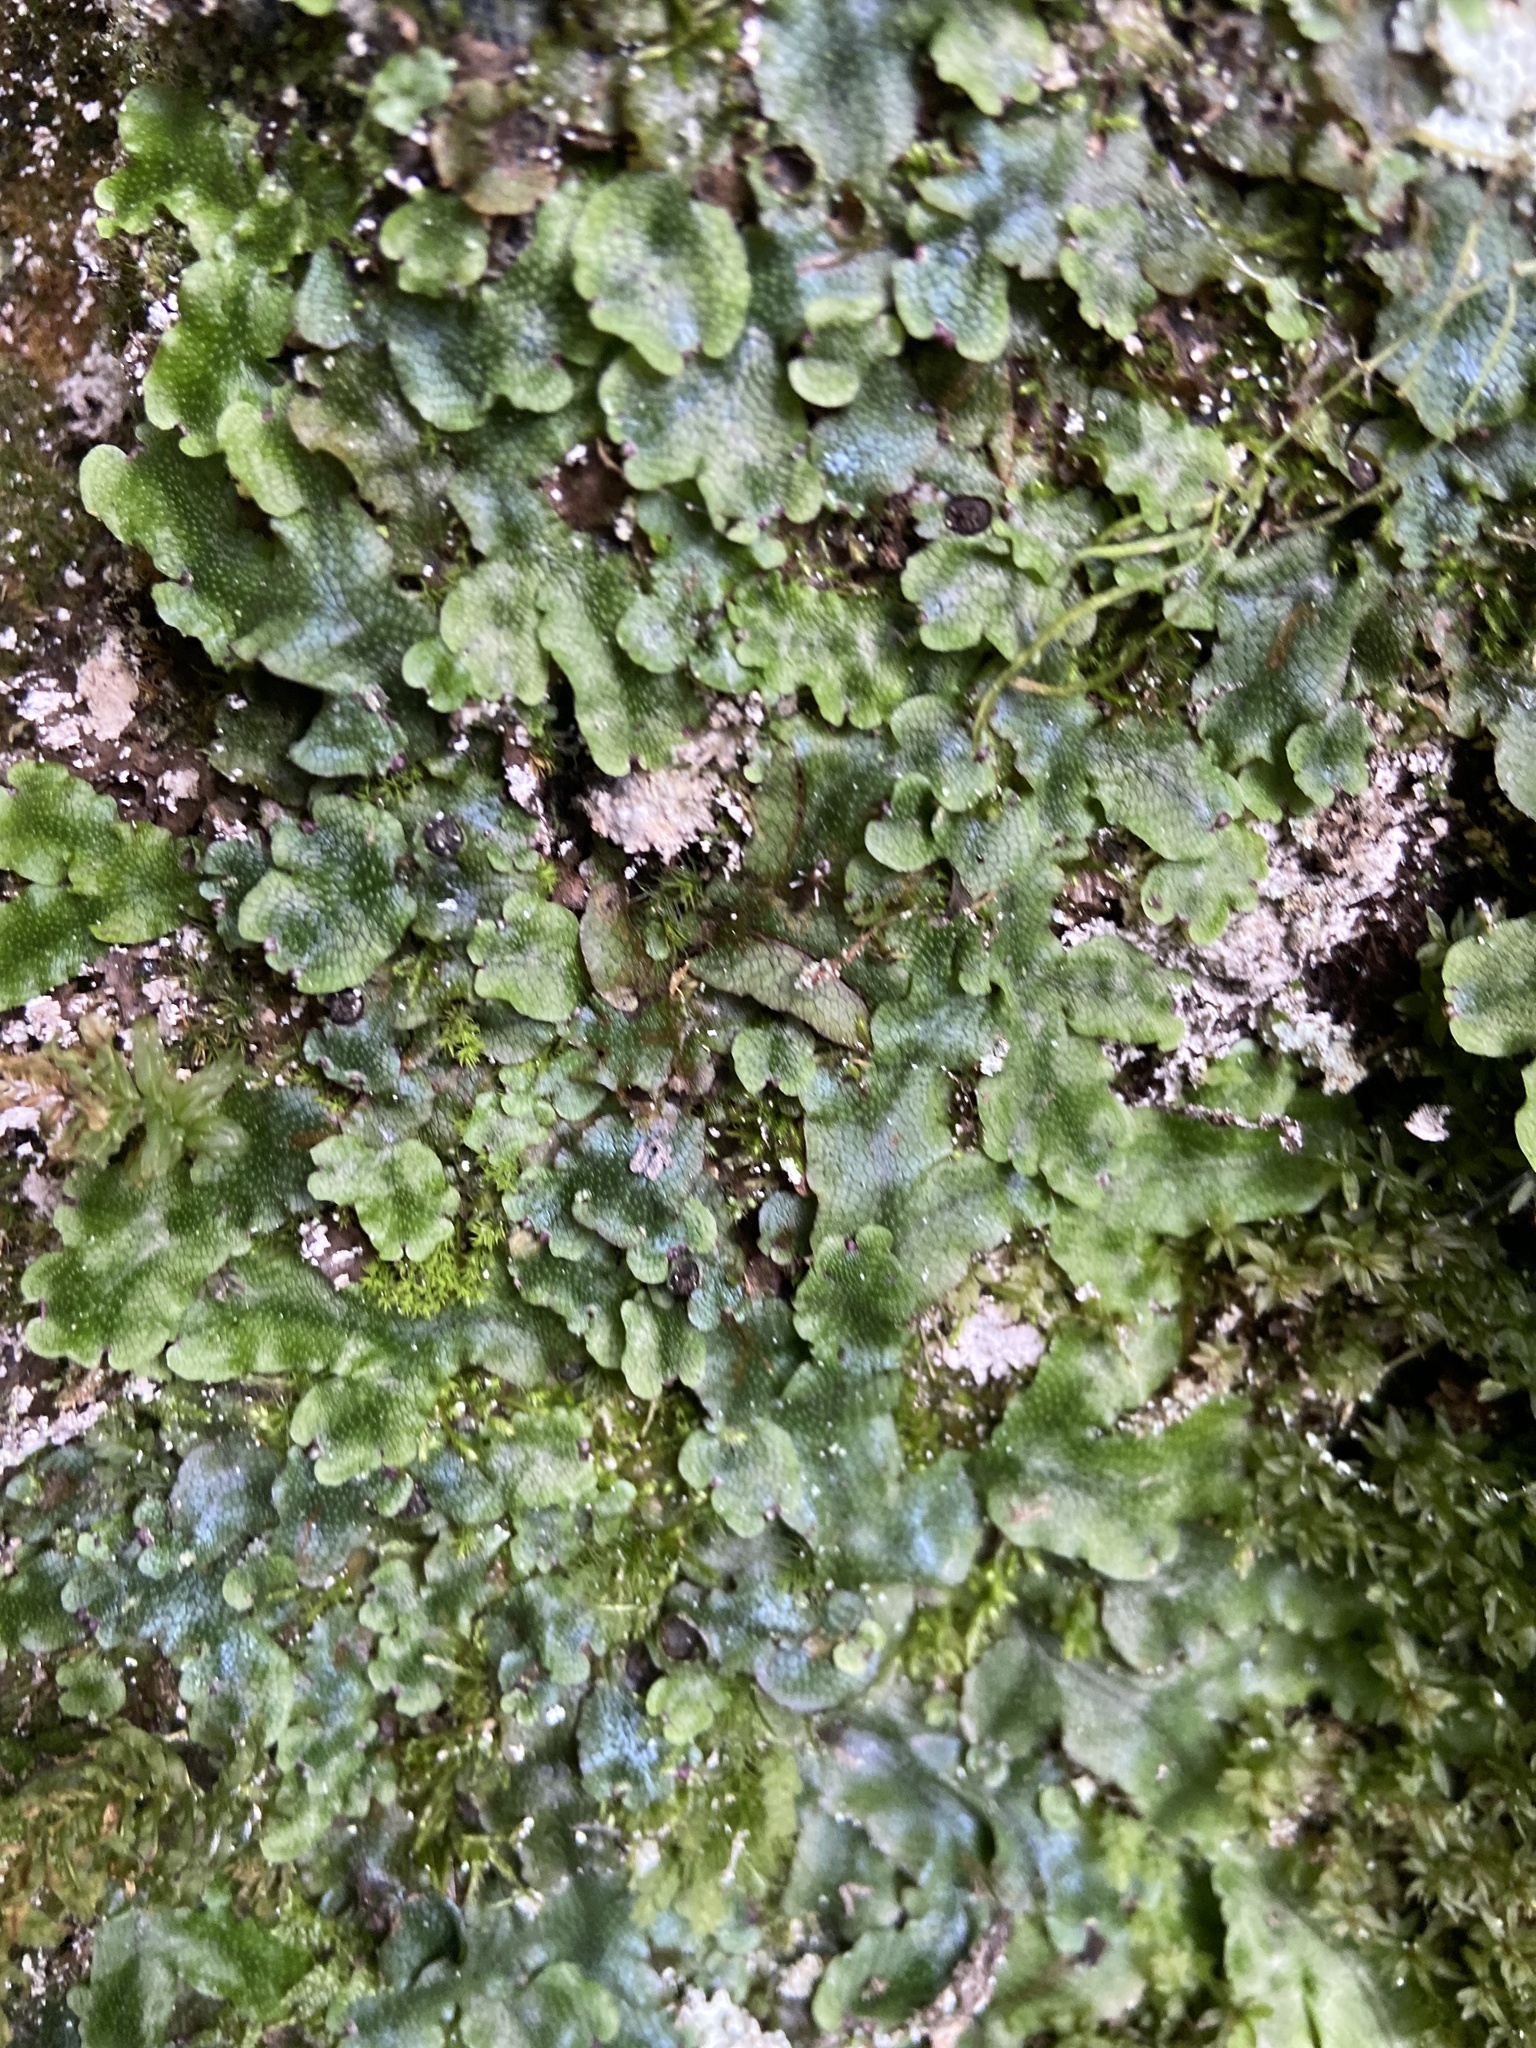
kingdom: Plantae
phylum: Marchantiophyta
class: Marchantiopsida
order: Marchantiales
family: Conocephalaceae
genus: Conocephalum
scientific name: Conocephalum salebrosum
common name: Cat-tongue liverwort
